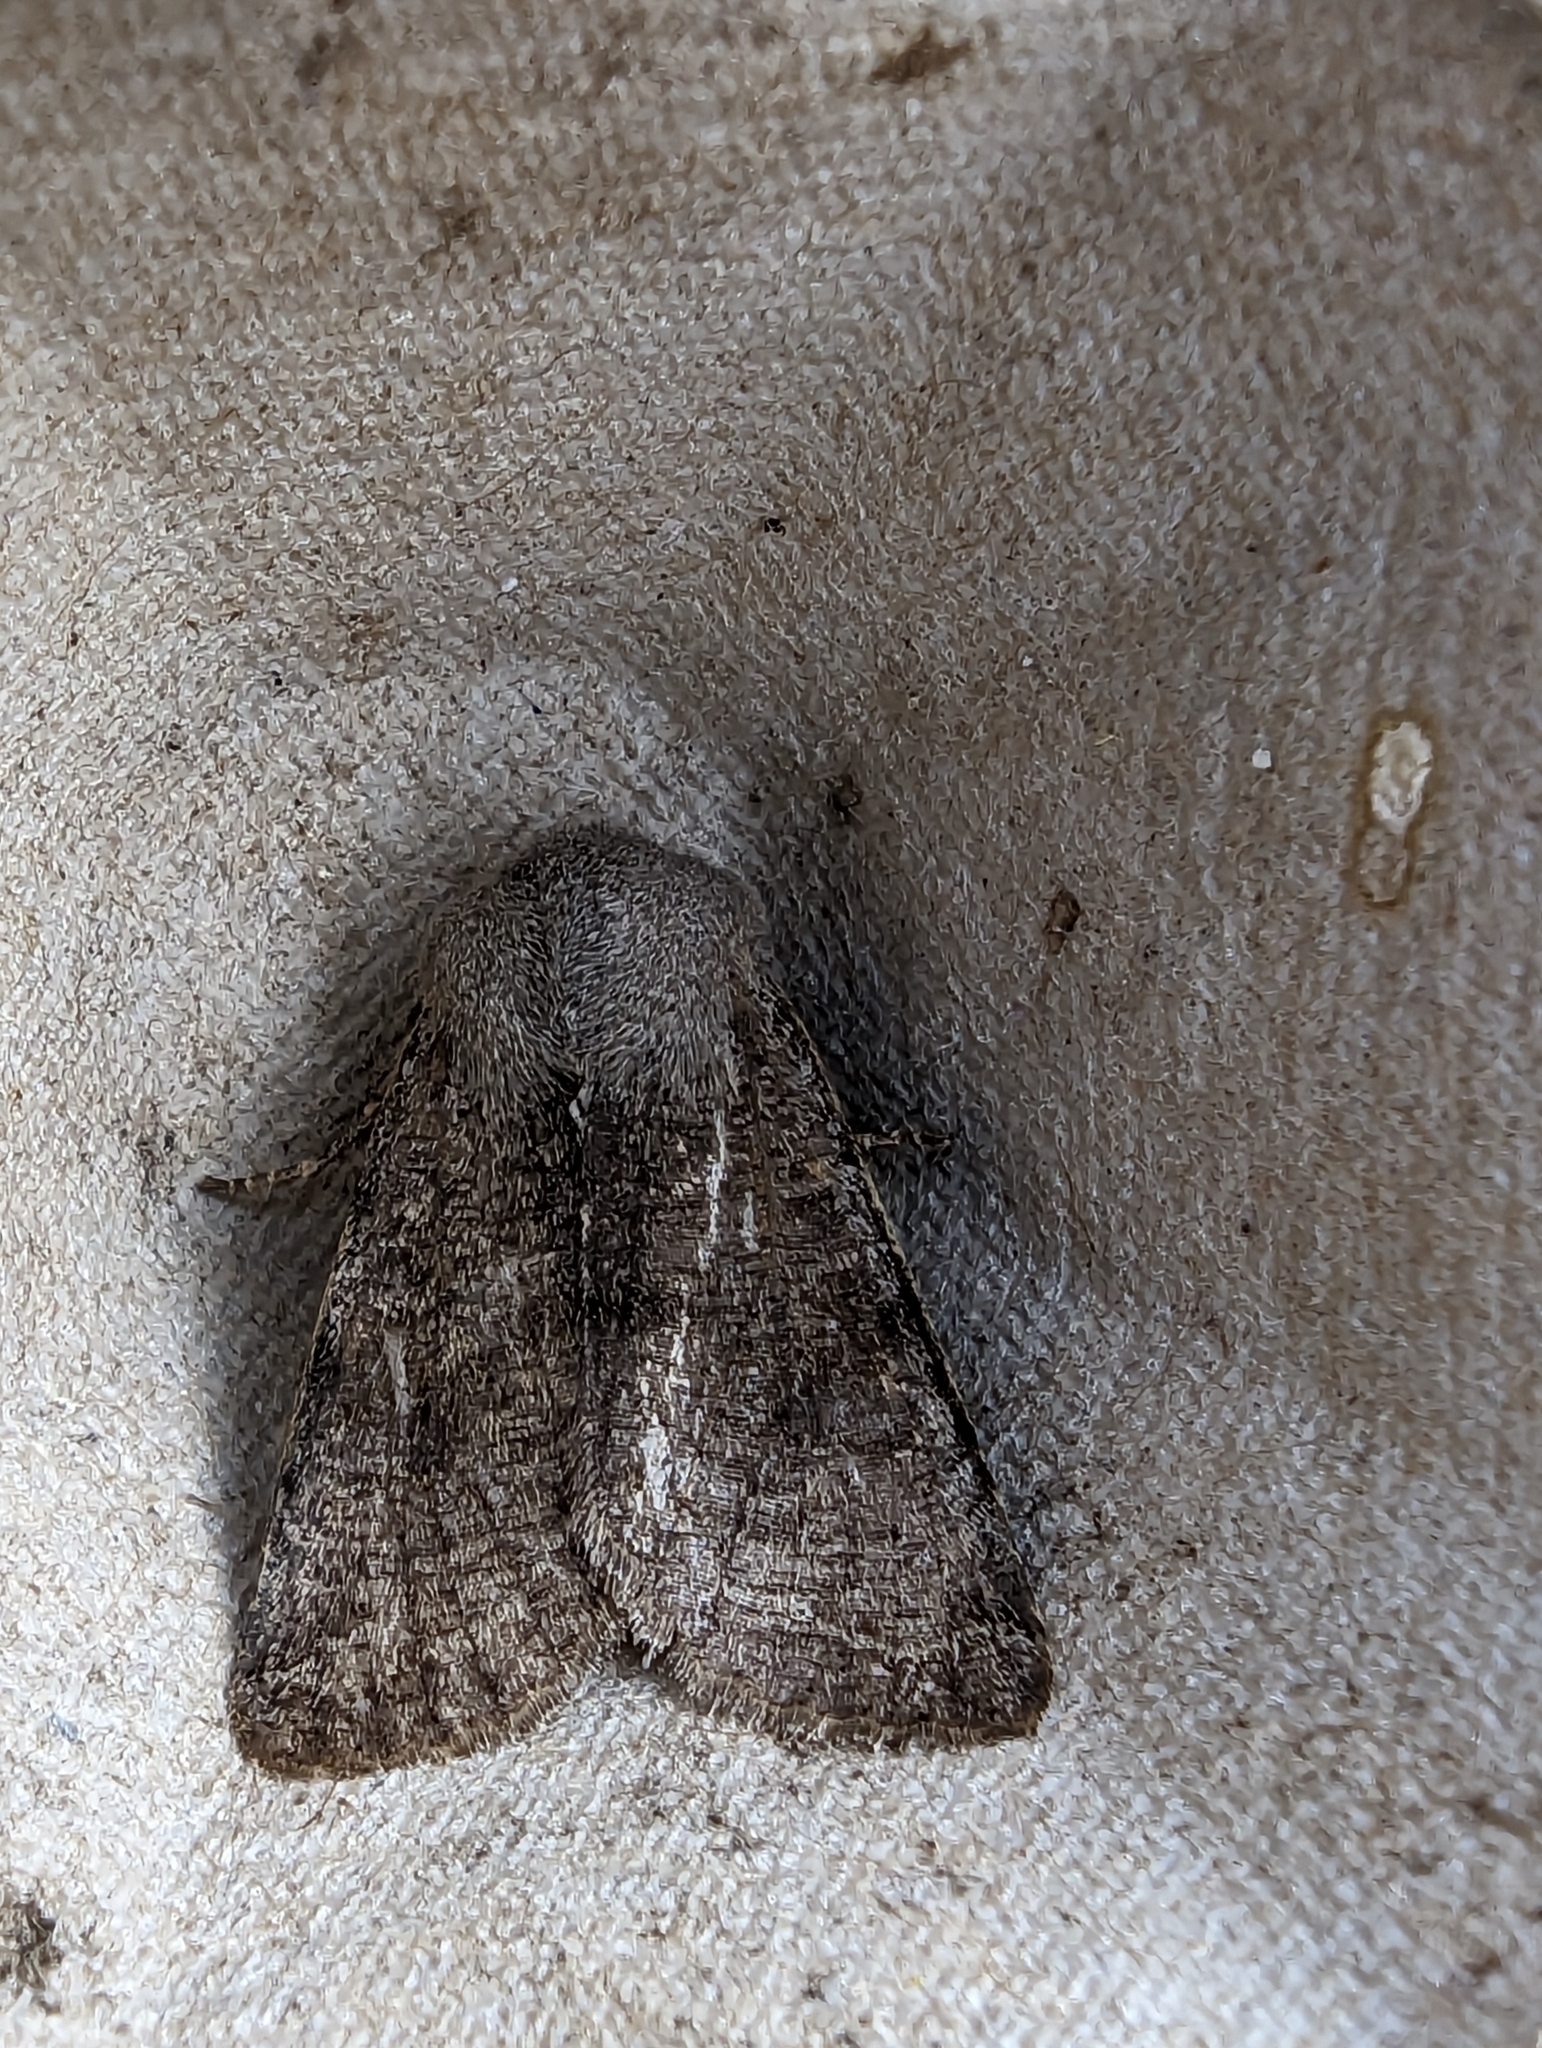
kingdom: Animalia
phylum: Arthropoda
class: Insecta
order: Lepidoptera
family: Noctuidae
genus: Orthosia
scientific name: Orthosia incerta
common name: Clouded drab
